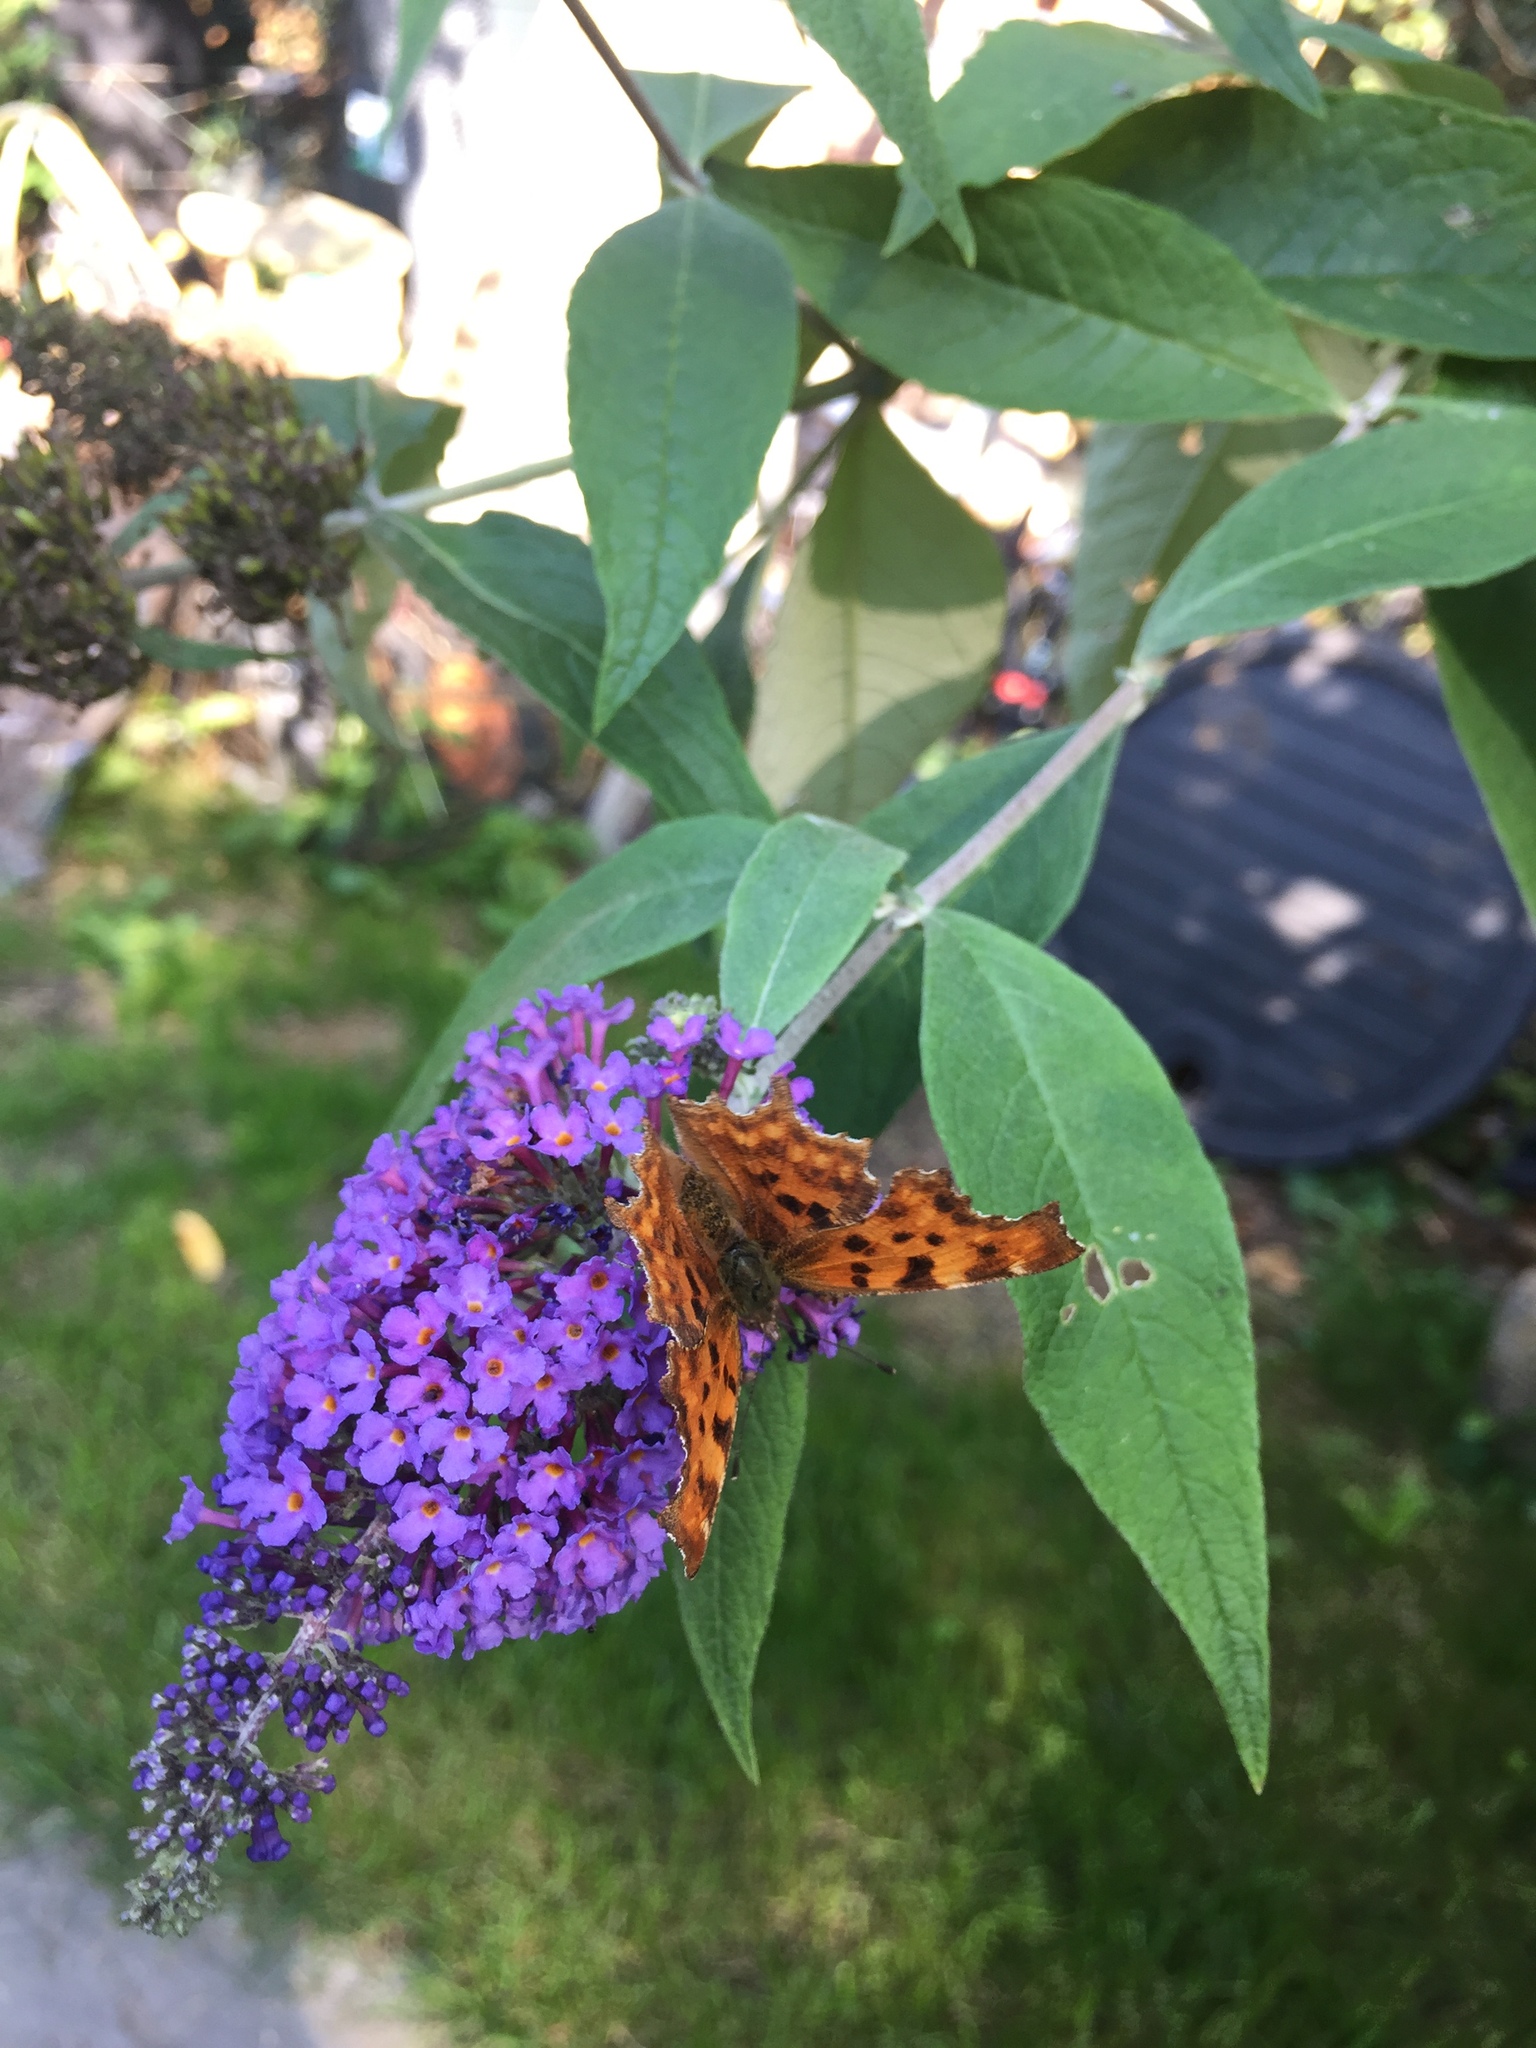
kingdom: Animalia
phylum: Arthropoda
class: Insecta
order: Lepidoptera
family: Nymphalidae
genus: Polygonia
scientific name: Polygonia c-album
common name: Comma
